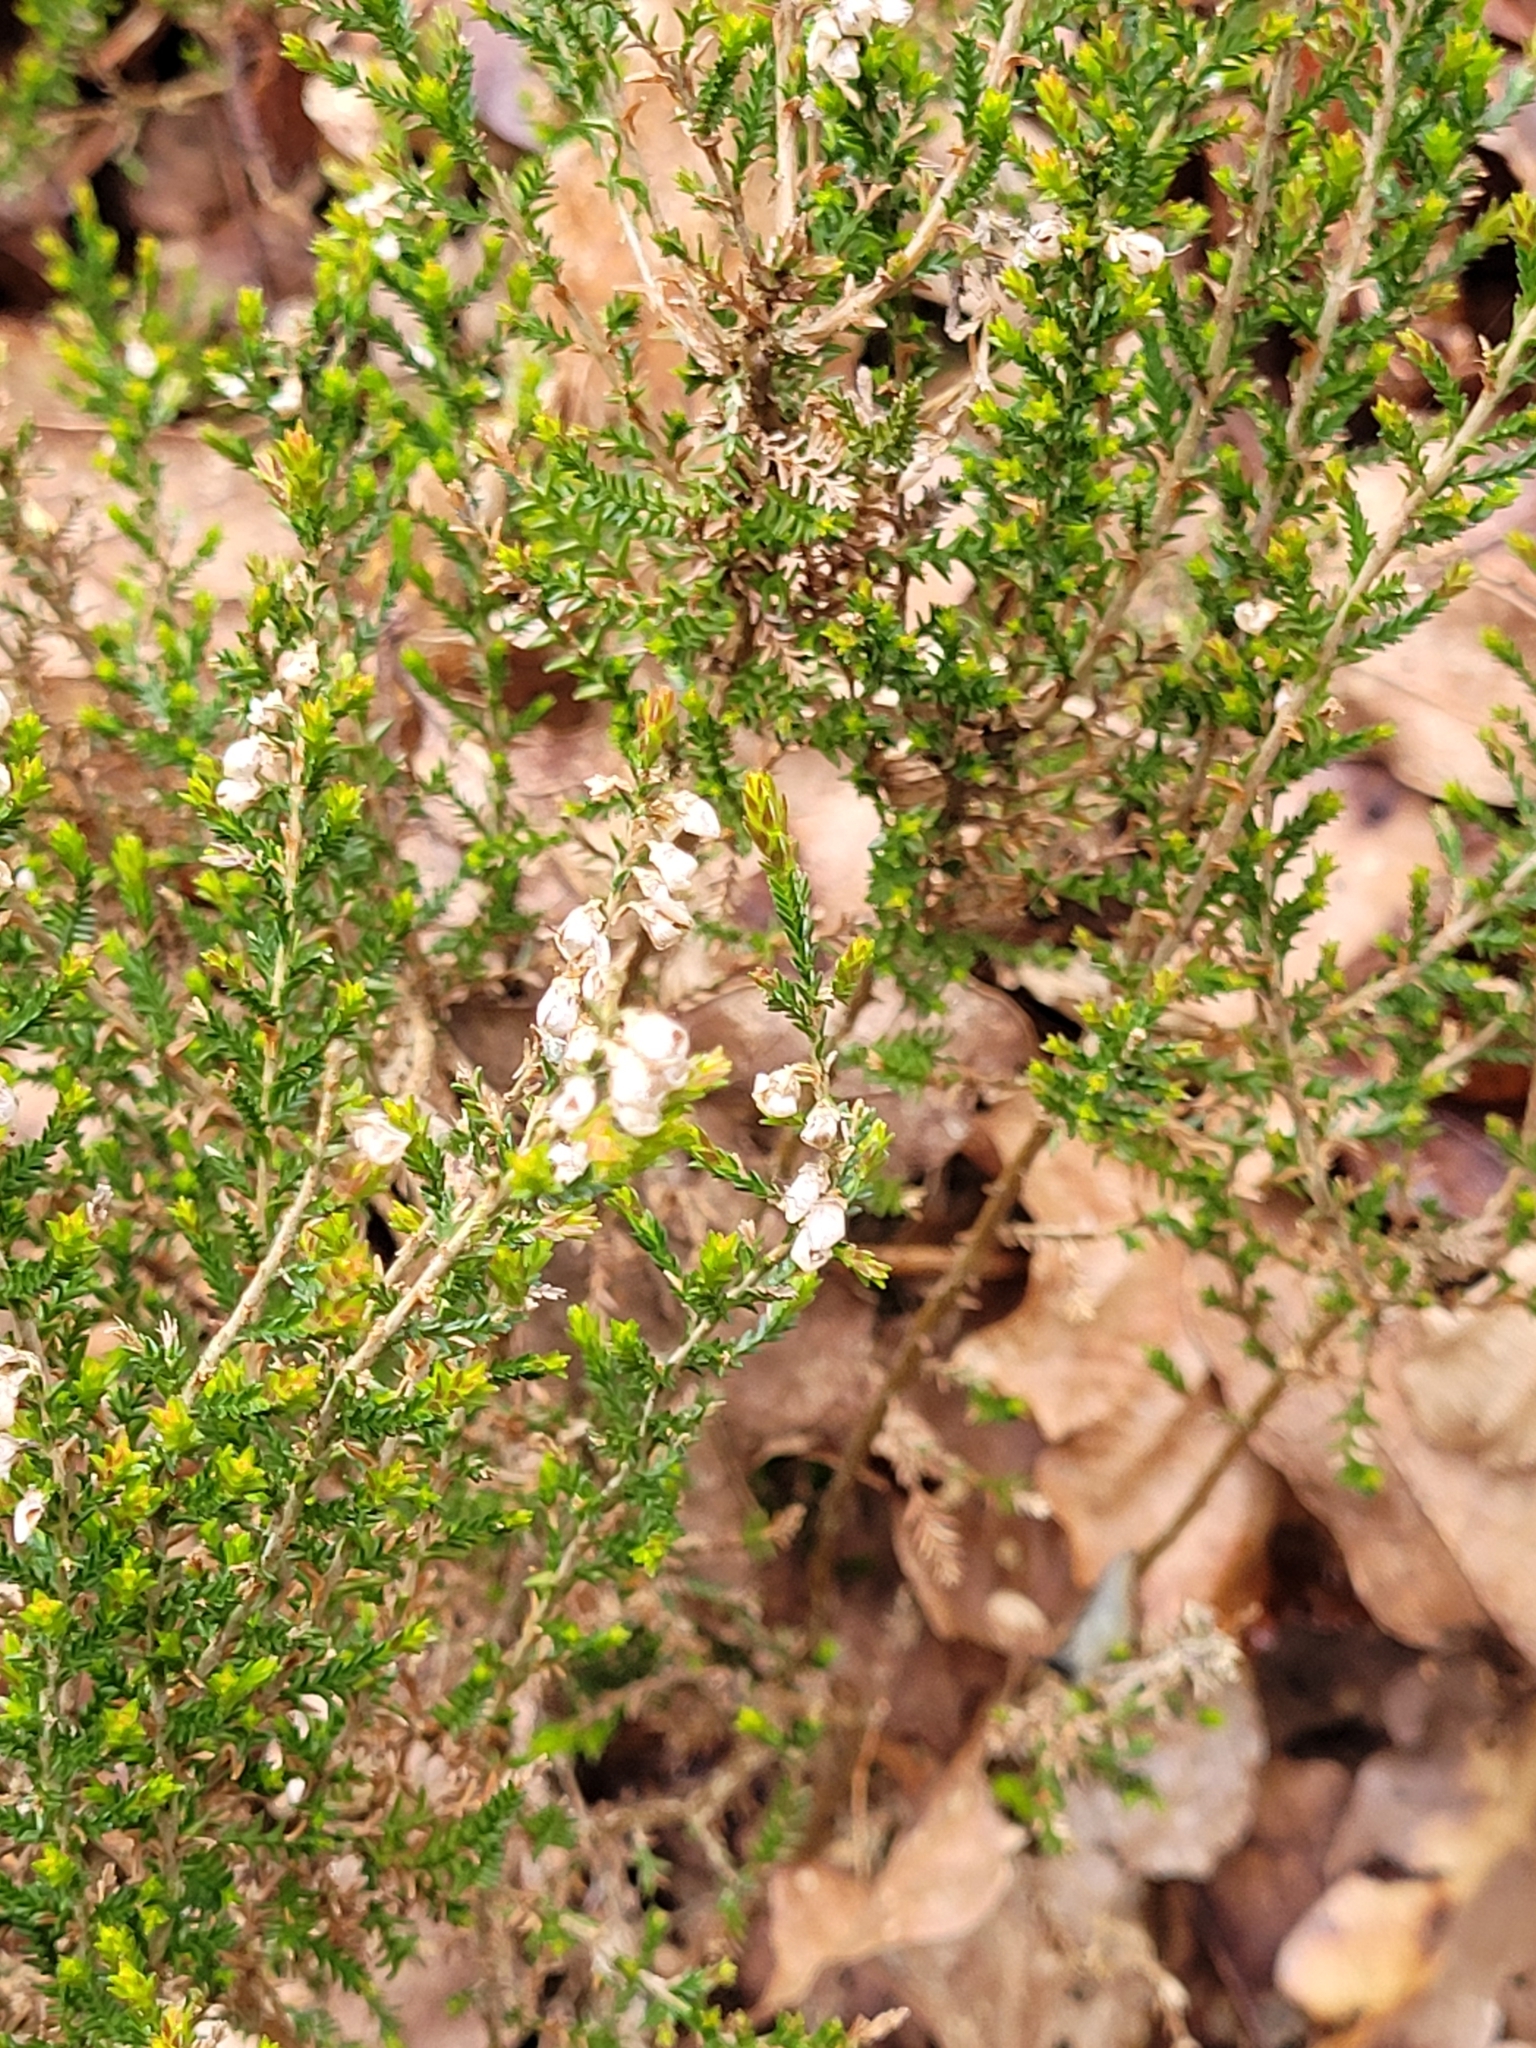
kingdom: Plantae
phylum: Tracheophyta
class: Magnoliopsida
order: Ericales
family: Ericaceae
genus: Calluna
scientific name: Calluna vulgaris
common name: Heather
